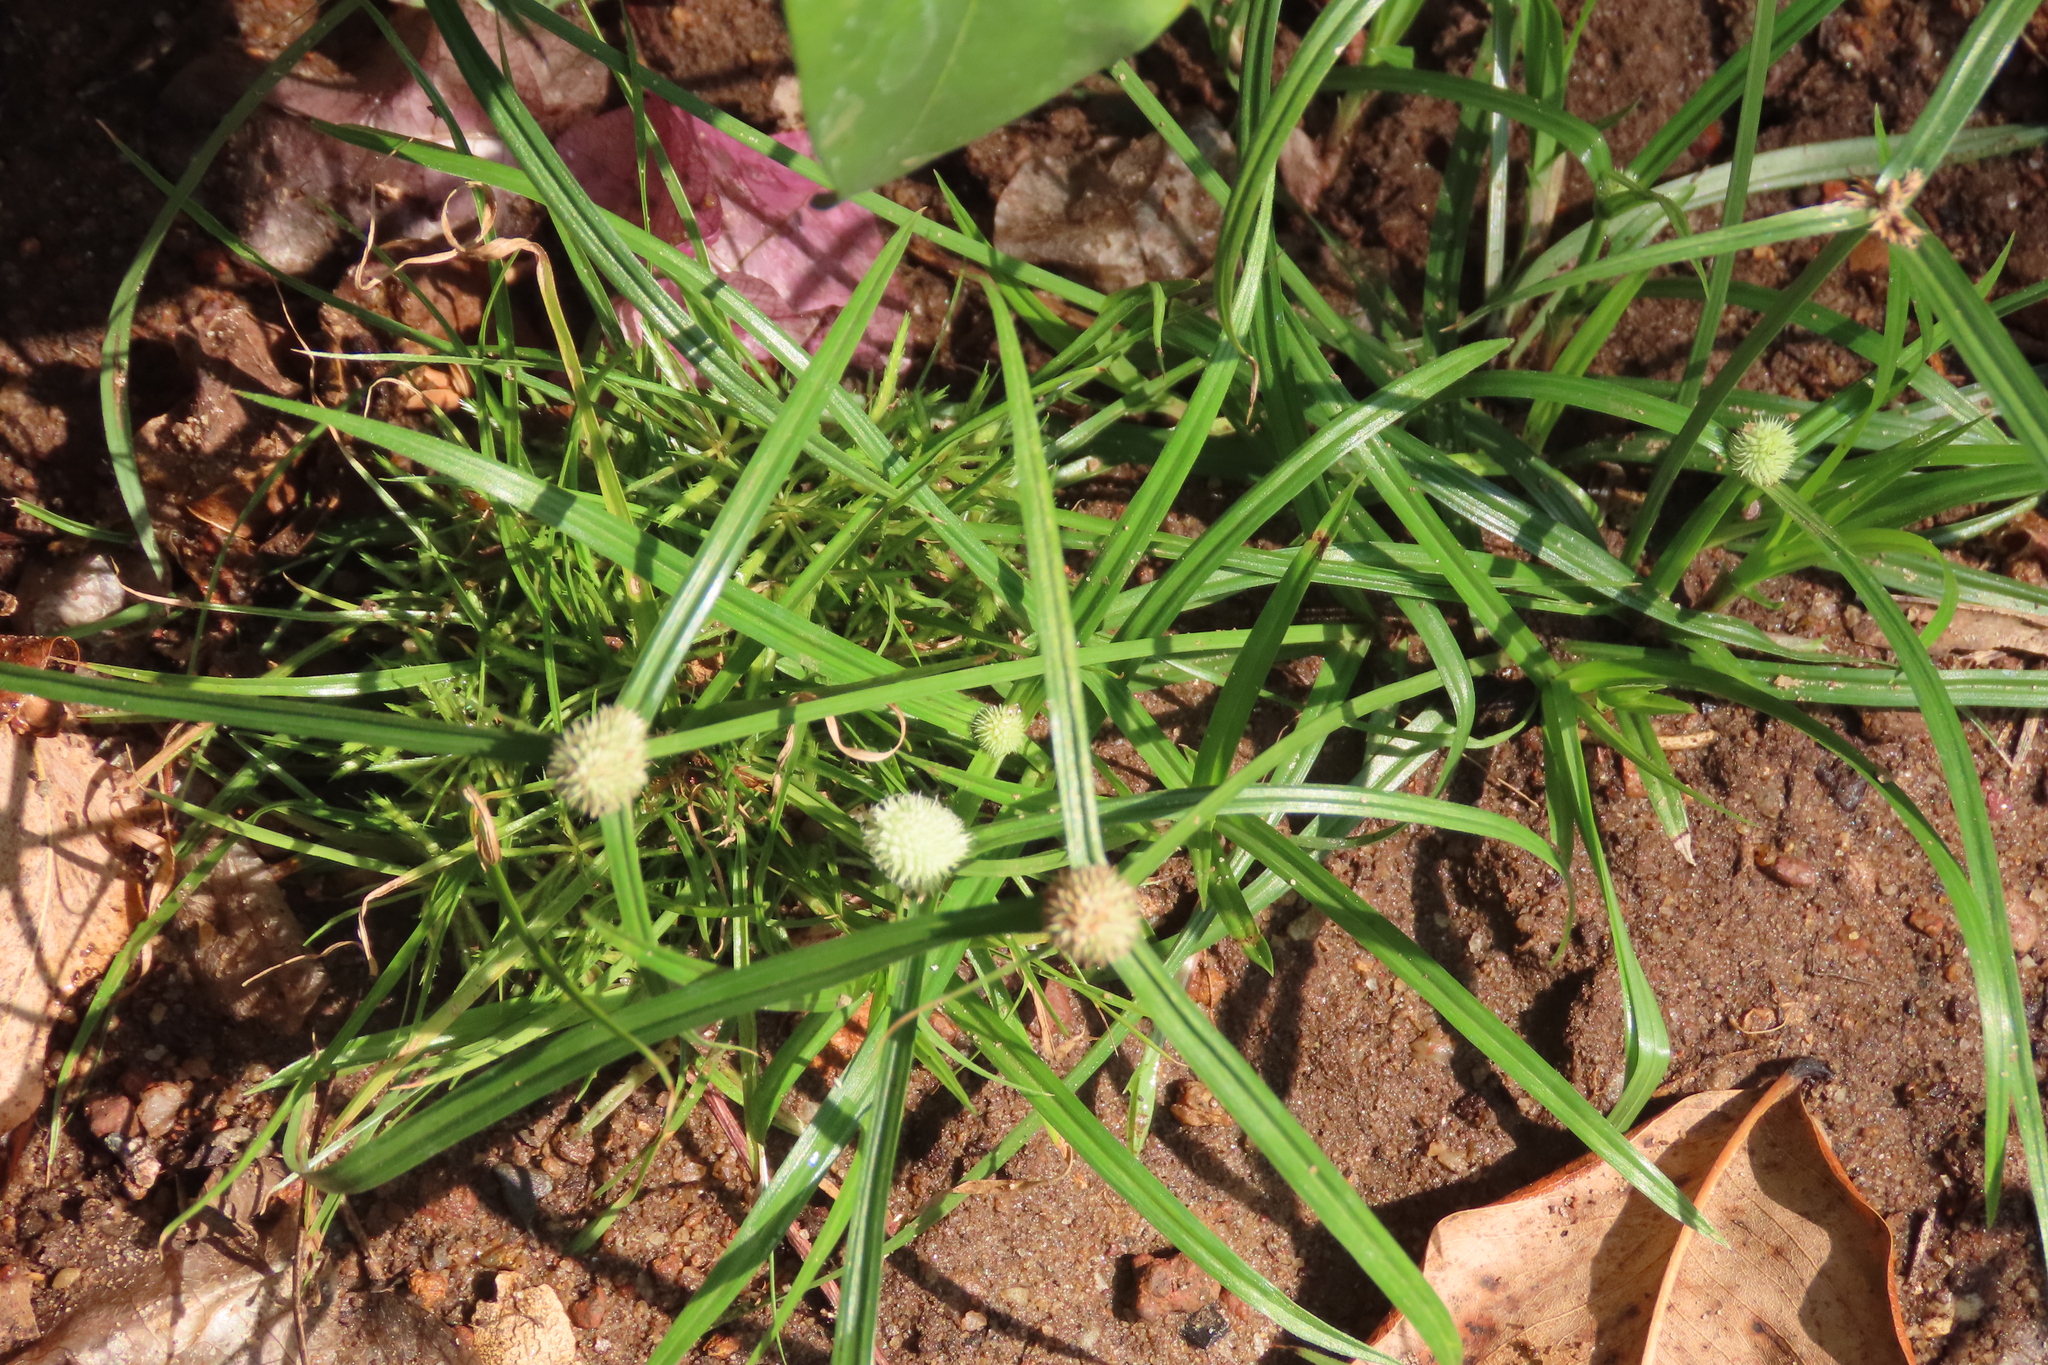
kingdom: Plantae
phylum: Tracheophyta
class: Liliopsida
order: Poales
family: Cyperaceae
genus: Cyperus
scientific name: Cyperus mindorensis
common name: Flatsedge
